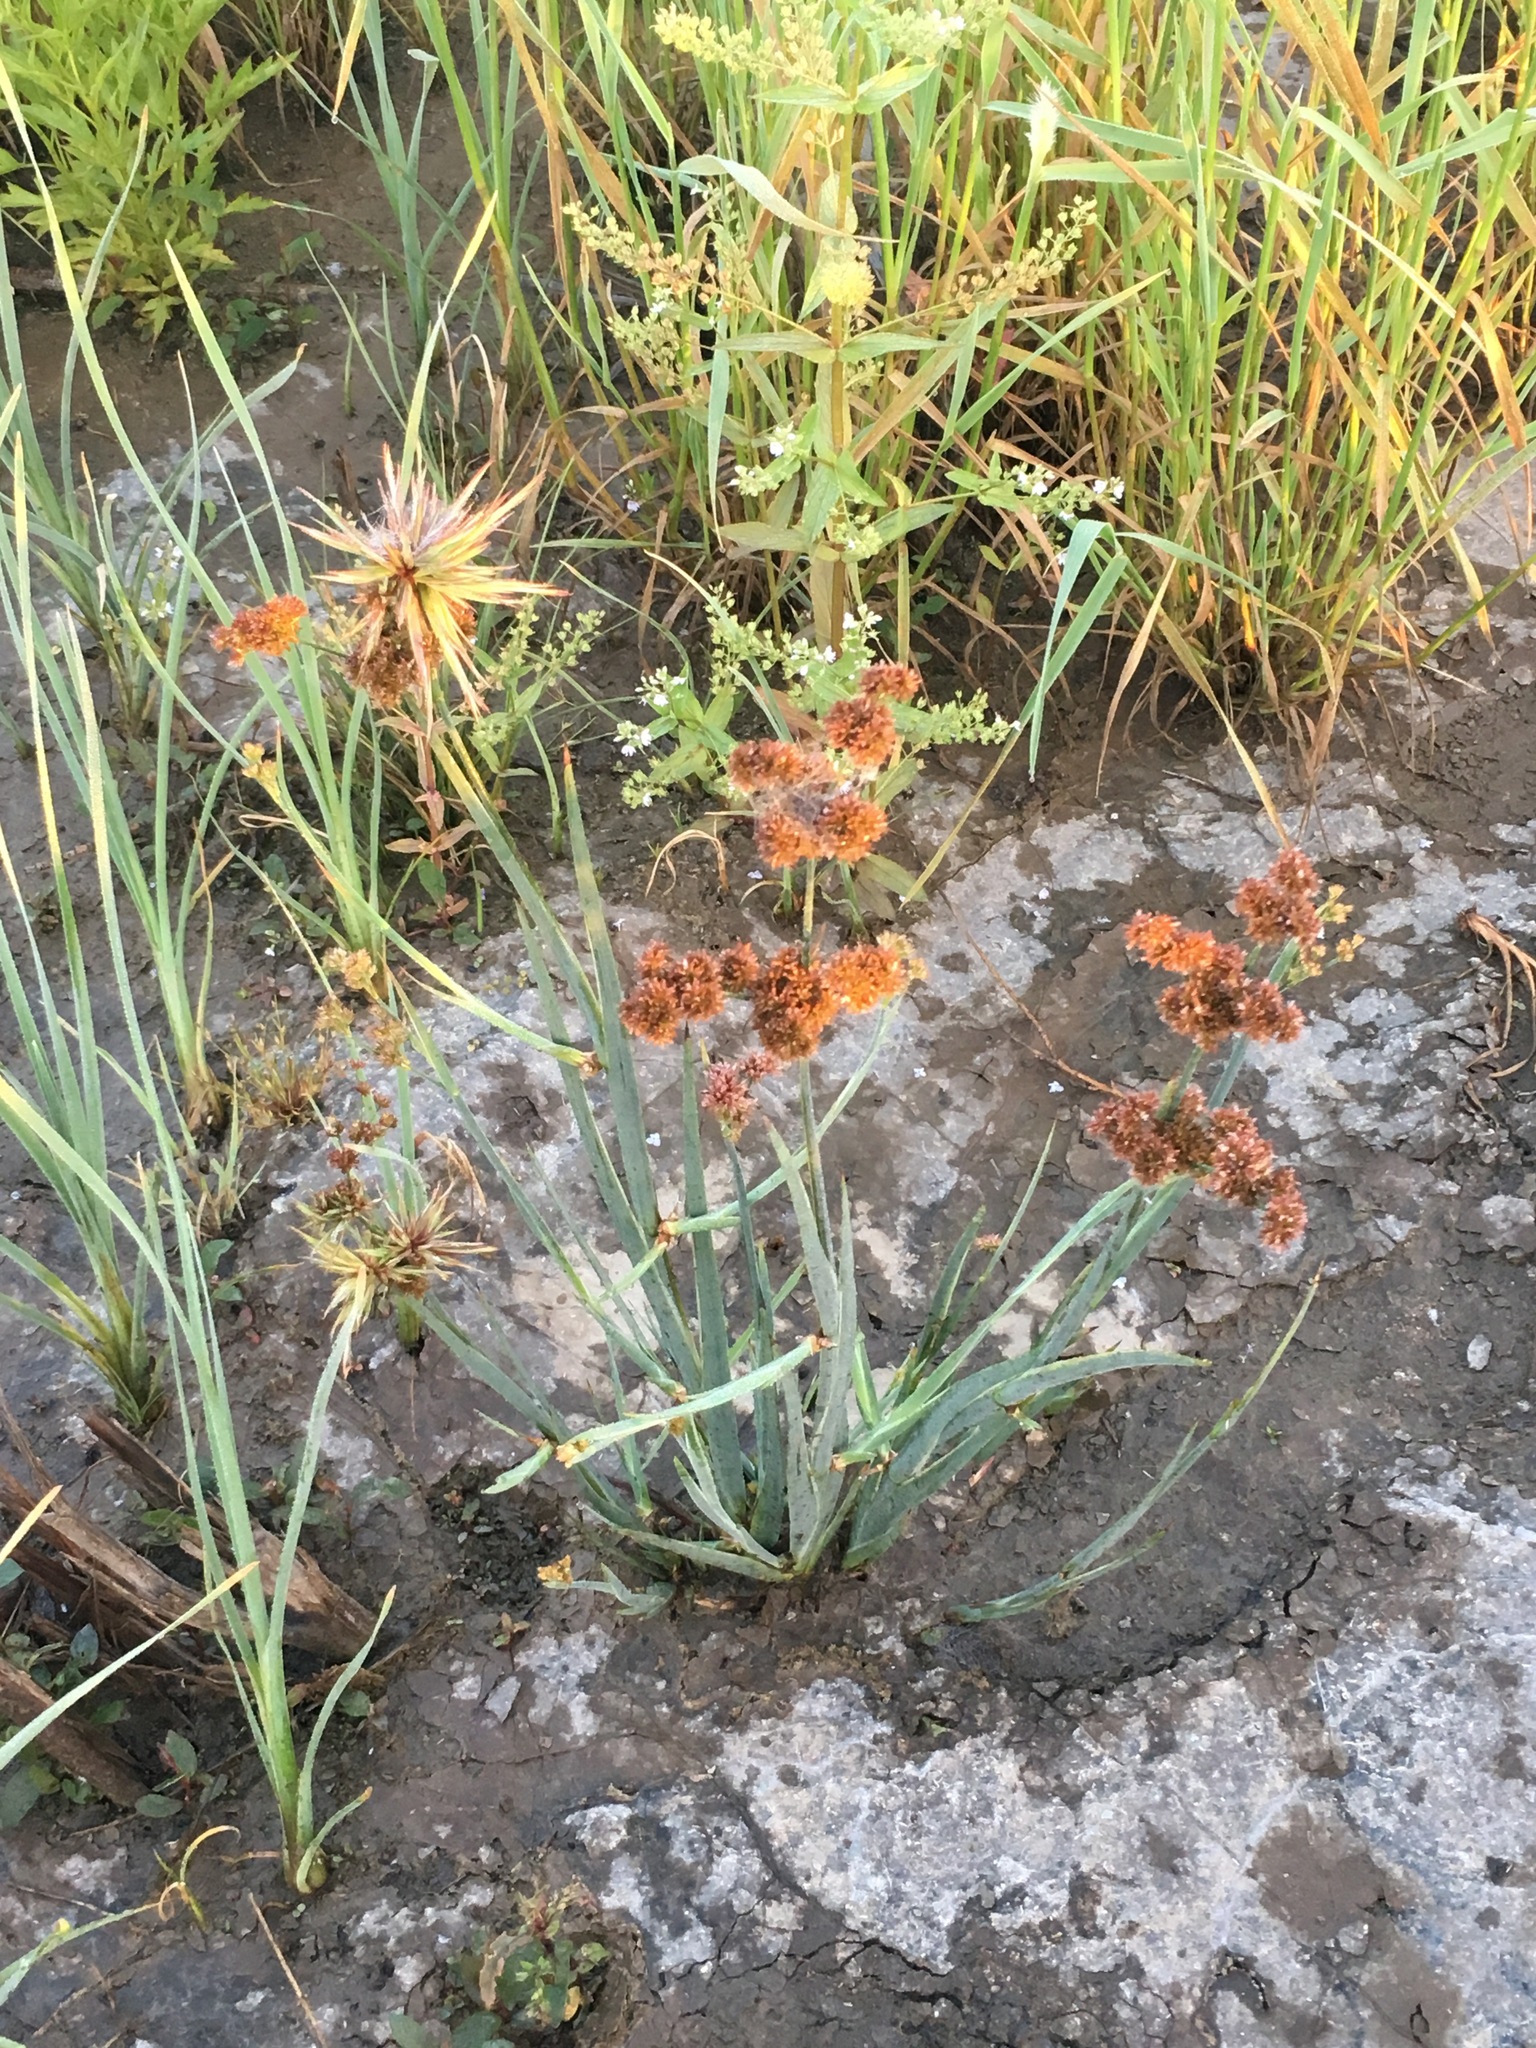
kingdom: Plantae
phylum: Tracheophyta
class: Liliopsida
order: Poales
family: Juncaceae
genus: Juncus
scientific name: Juncus xiphioides
